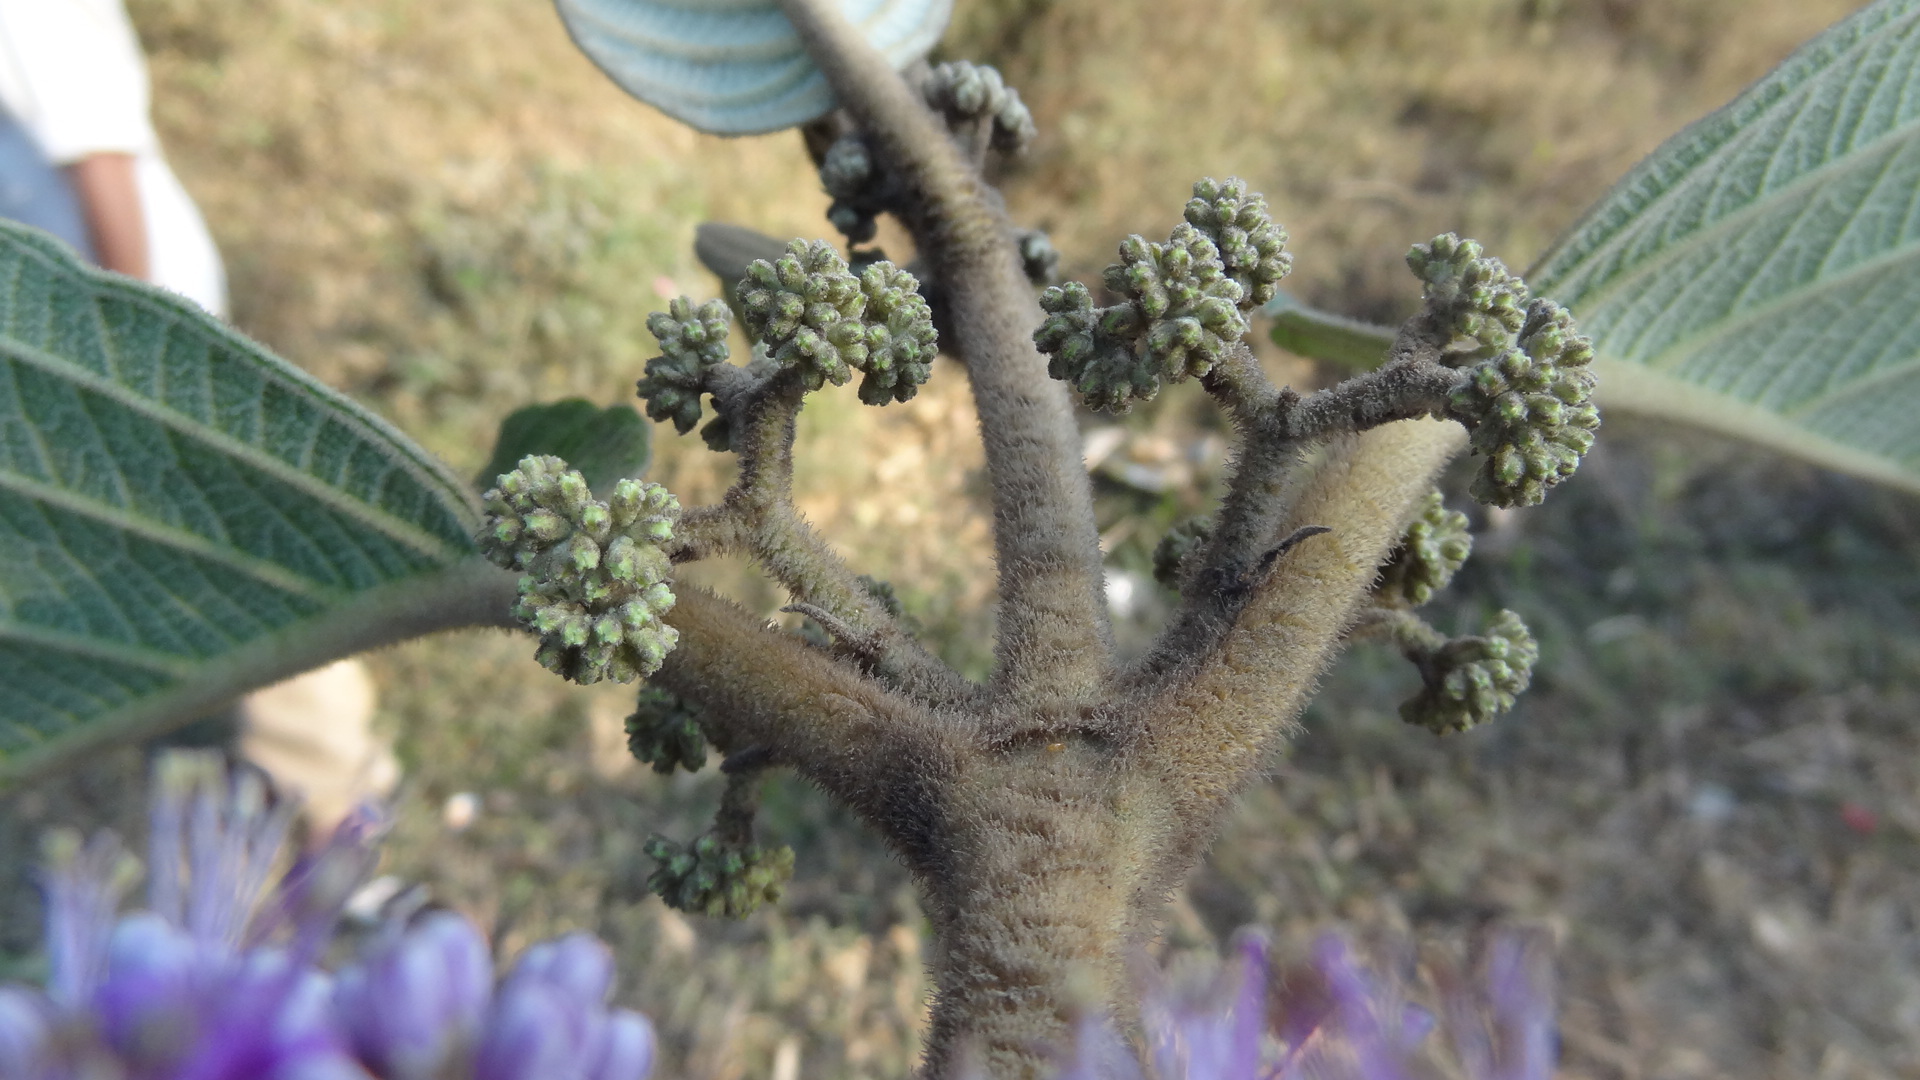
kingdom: Plantae
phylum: Tracheophyta
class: Magnoliopsida
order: Lamiales
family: Lamiaceae
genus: Callicarpa
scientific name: Callicarpa tomentosa
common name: Great woolly malayan-lilac
